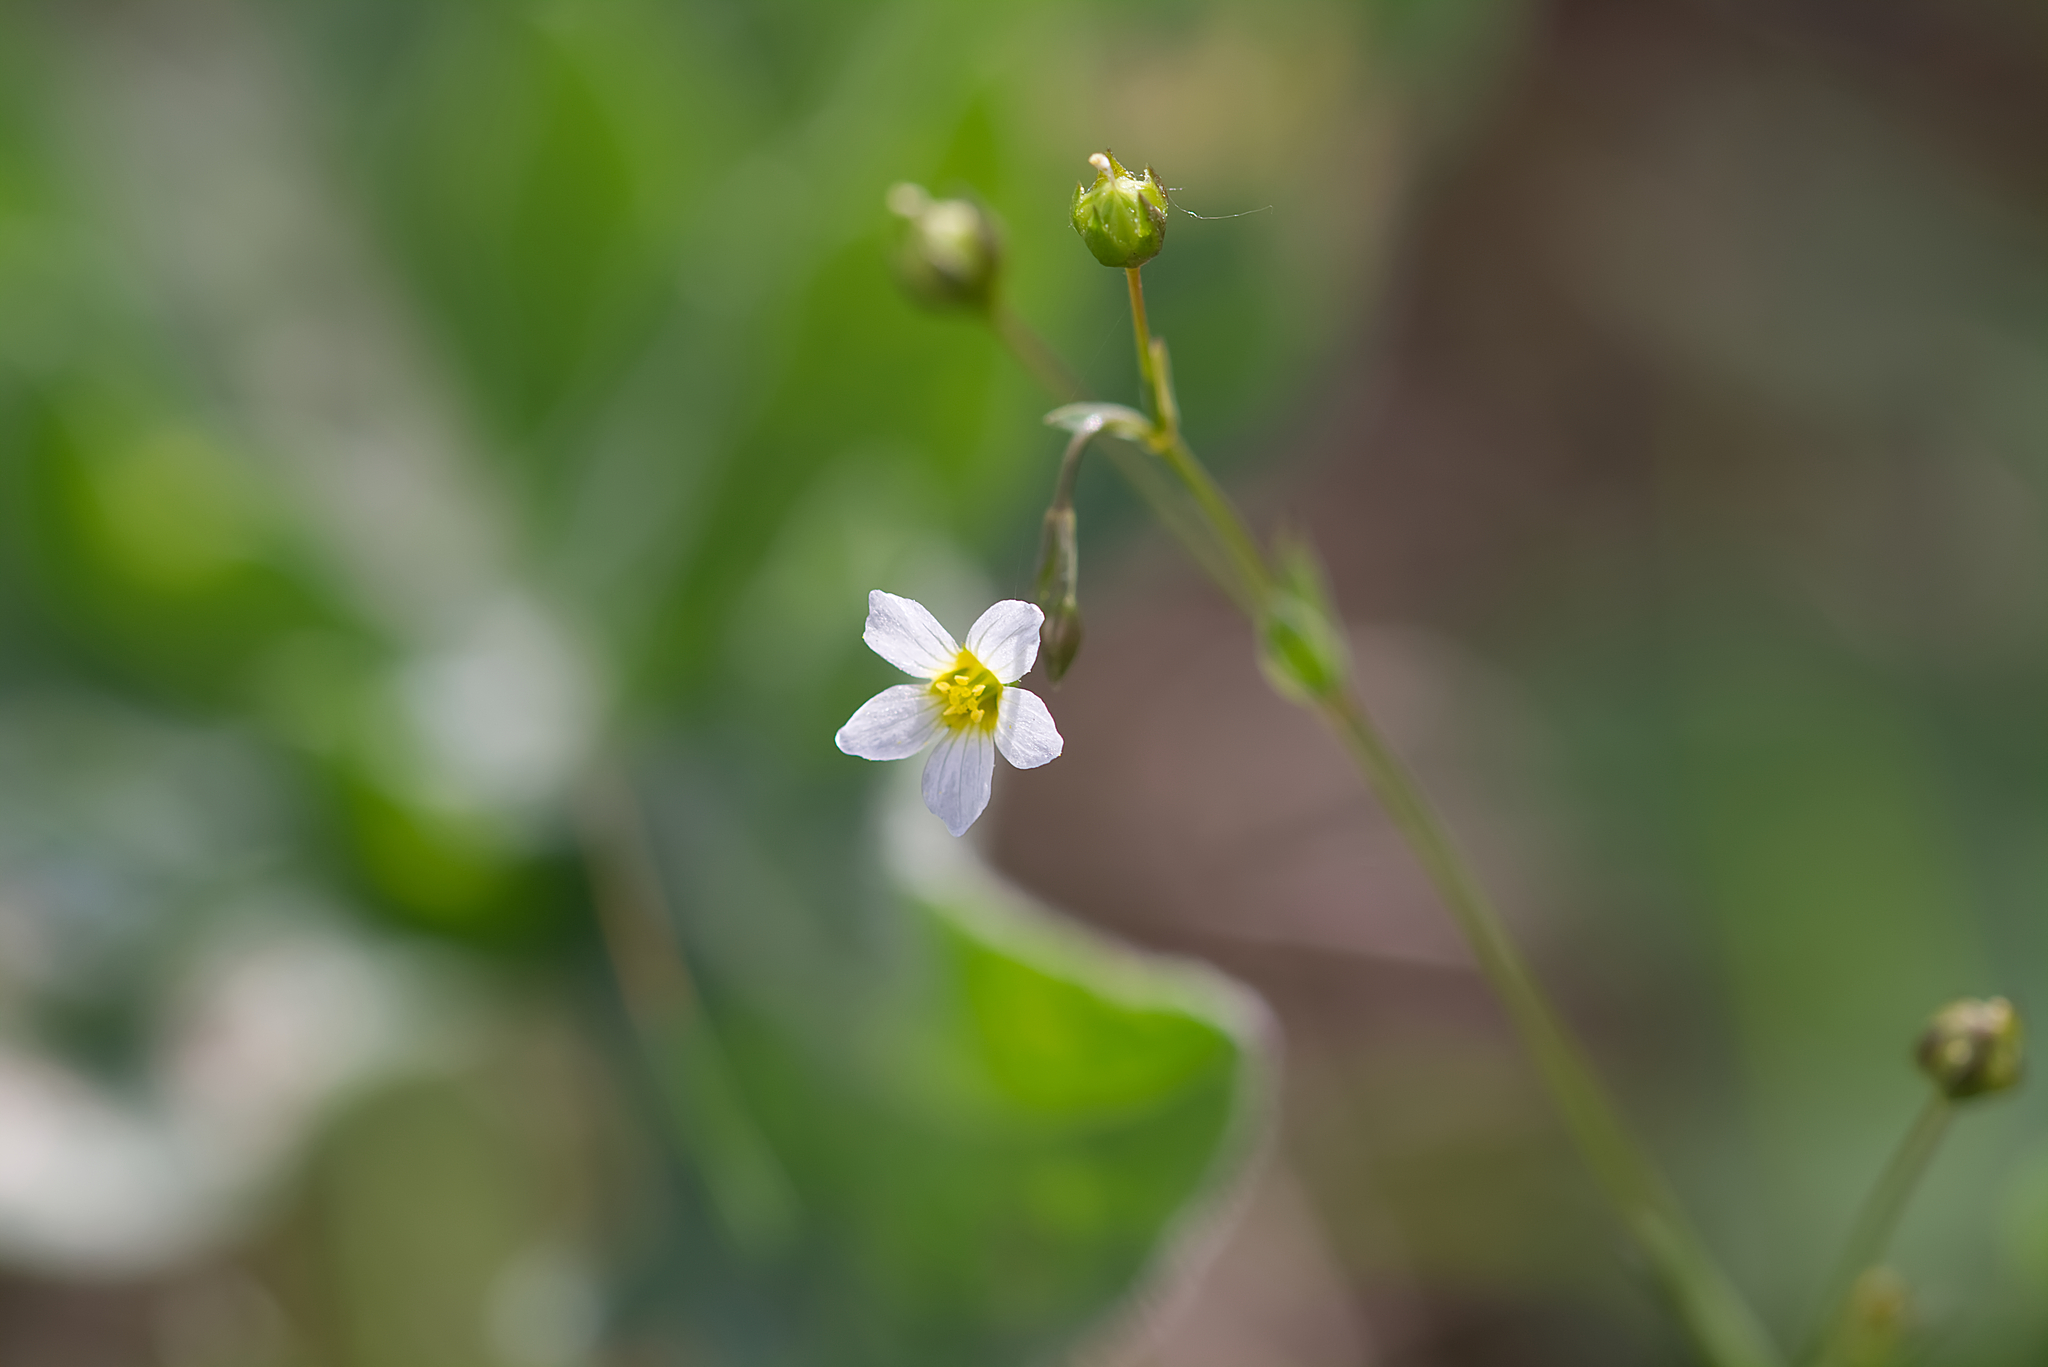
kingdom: Plantae
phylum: Tracheophyta
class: Magnoliopsida
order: Malpighiales
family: Linaceae
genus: Linum
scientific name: Linum catharticum
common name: Fairy flax
